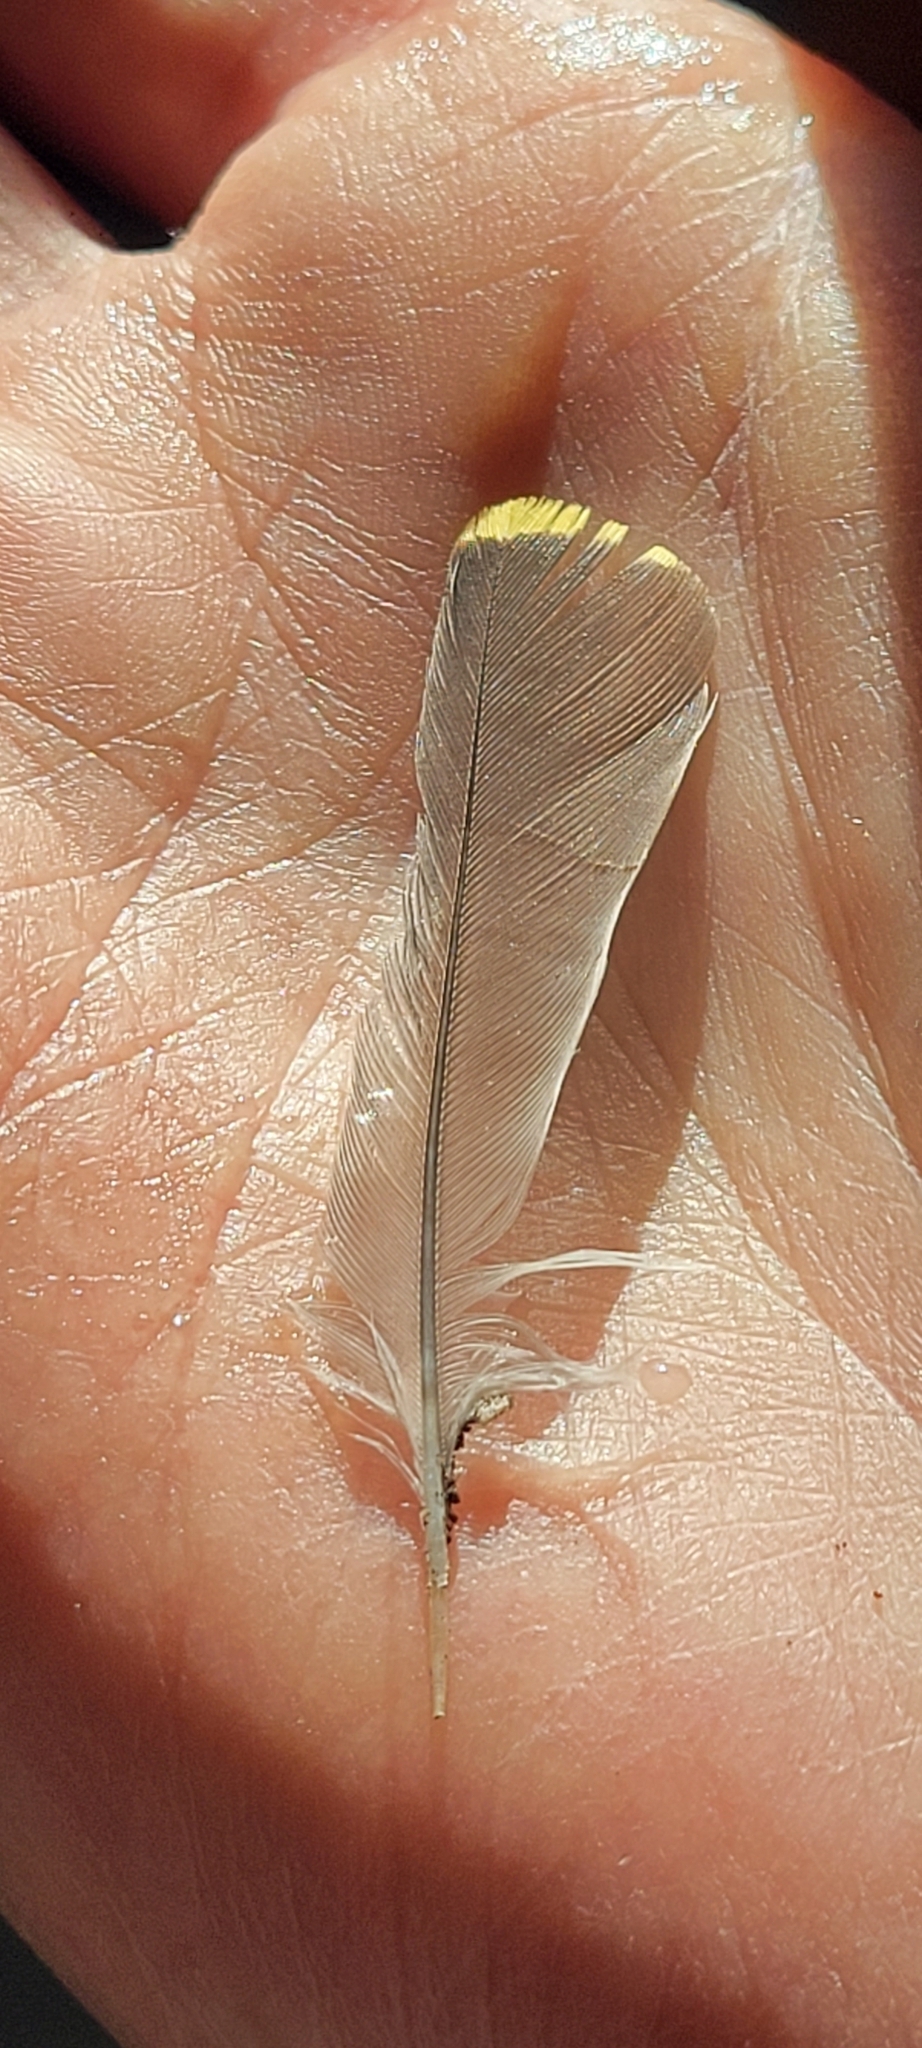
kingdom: Animalia
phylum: Chordata
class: Aves
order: Passeriformes
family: Parulidae
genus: Setophaga
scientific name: Setophaga americana
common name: Northern parula
